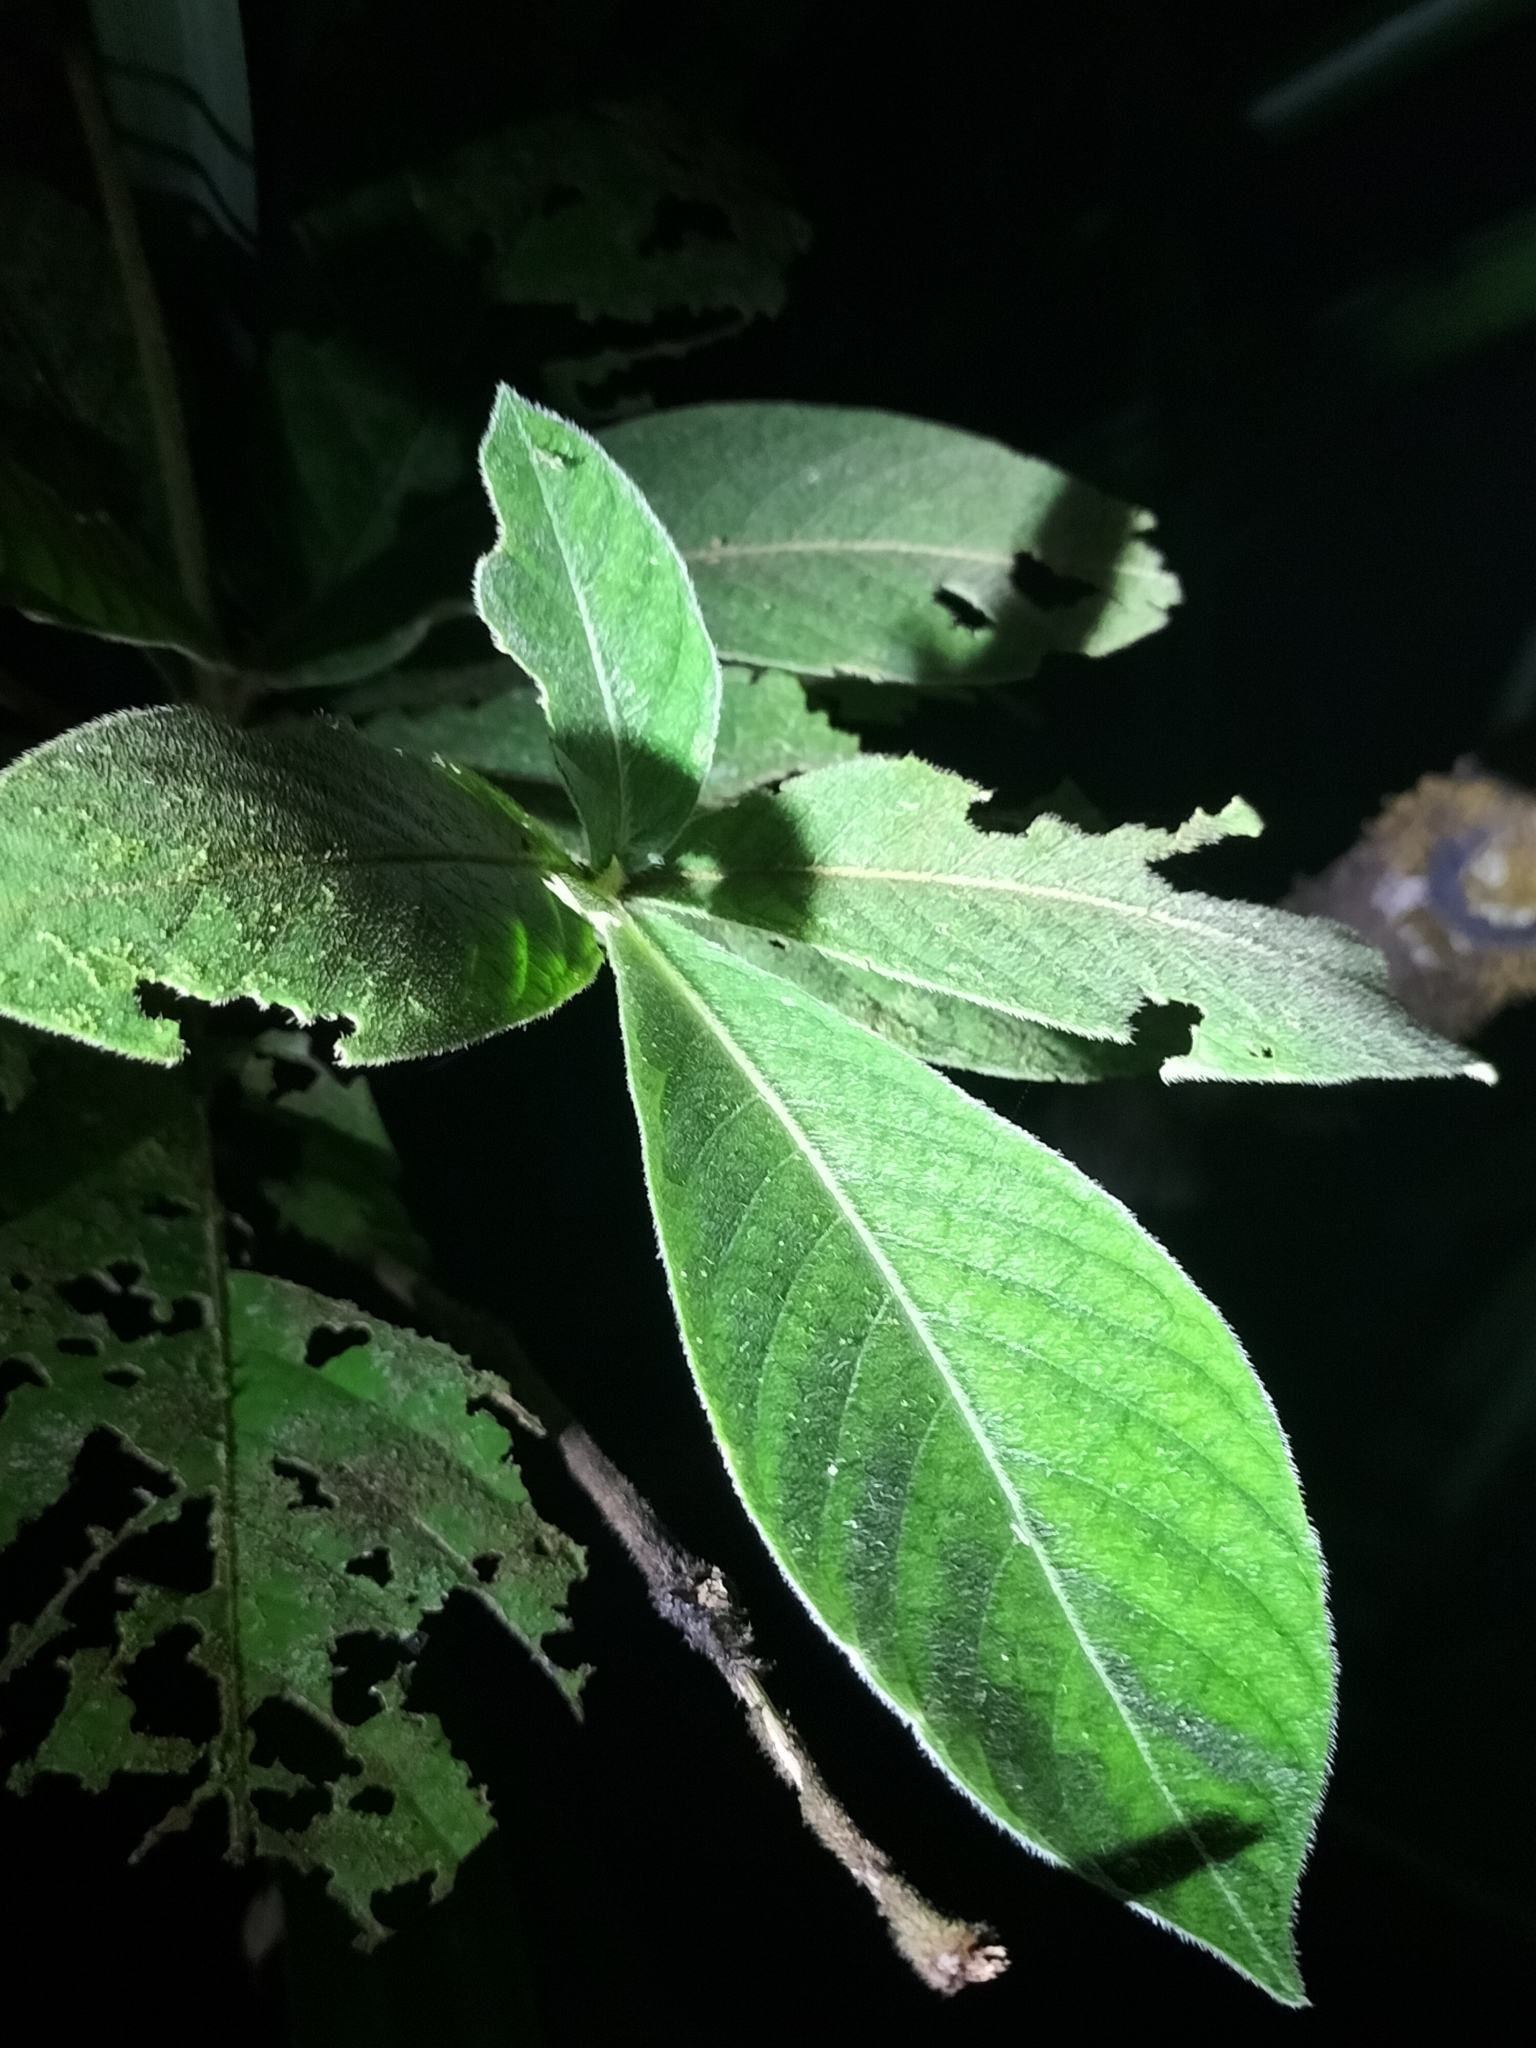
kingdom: Plantae
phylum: Tracheophyta
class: Magnoliopsida
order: Gentianales
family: Rubiaceae
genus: Atractocarpus
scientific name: Atractocarpus hirtus
